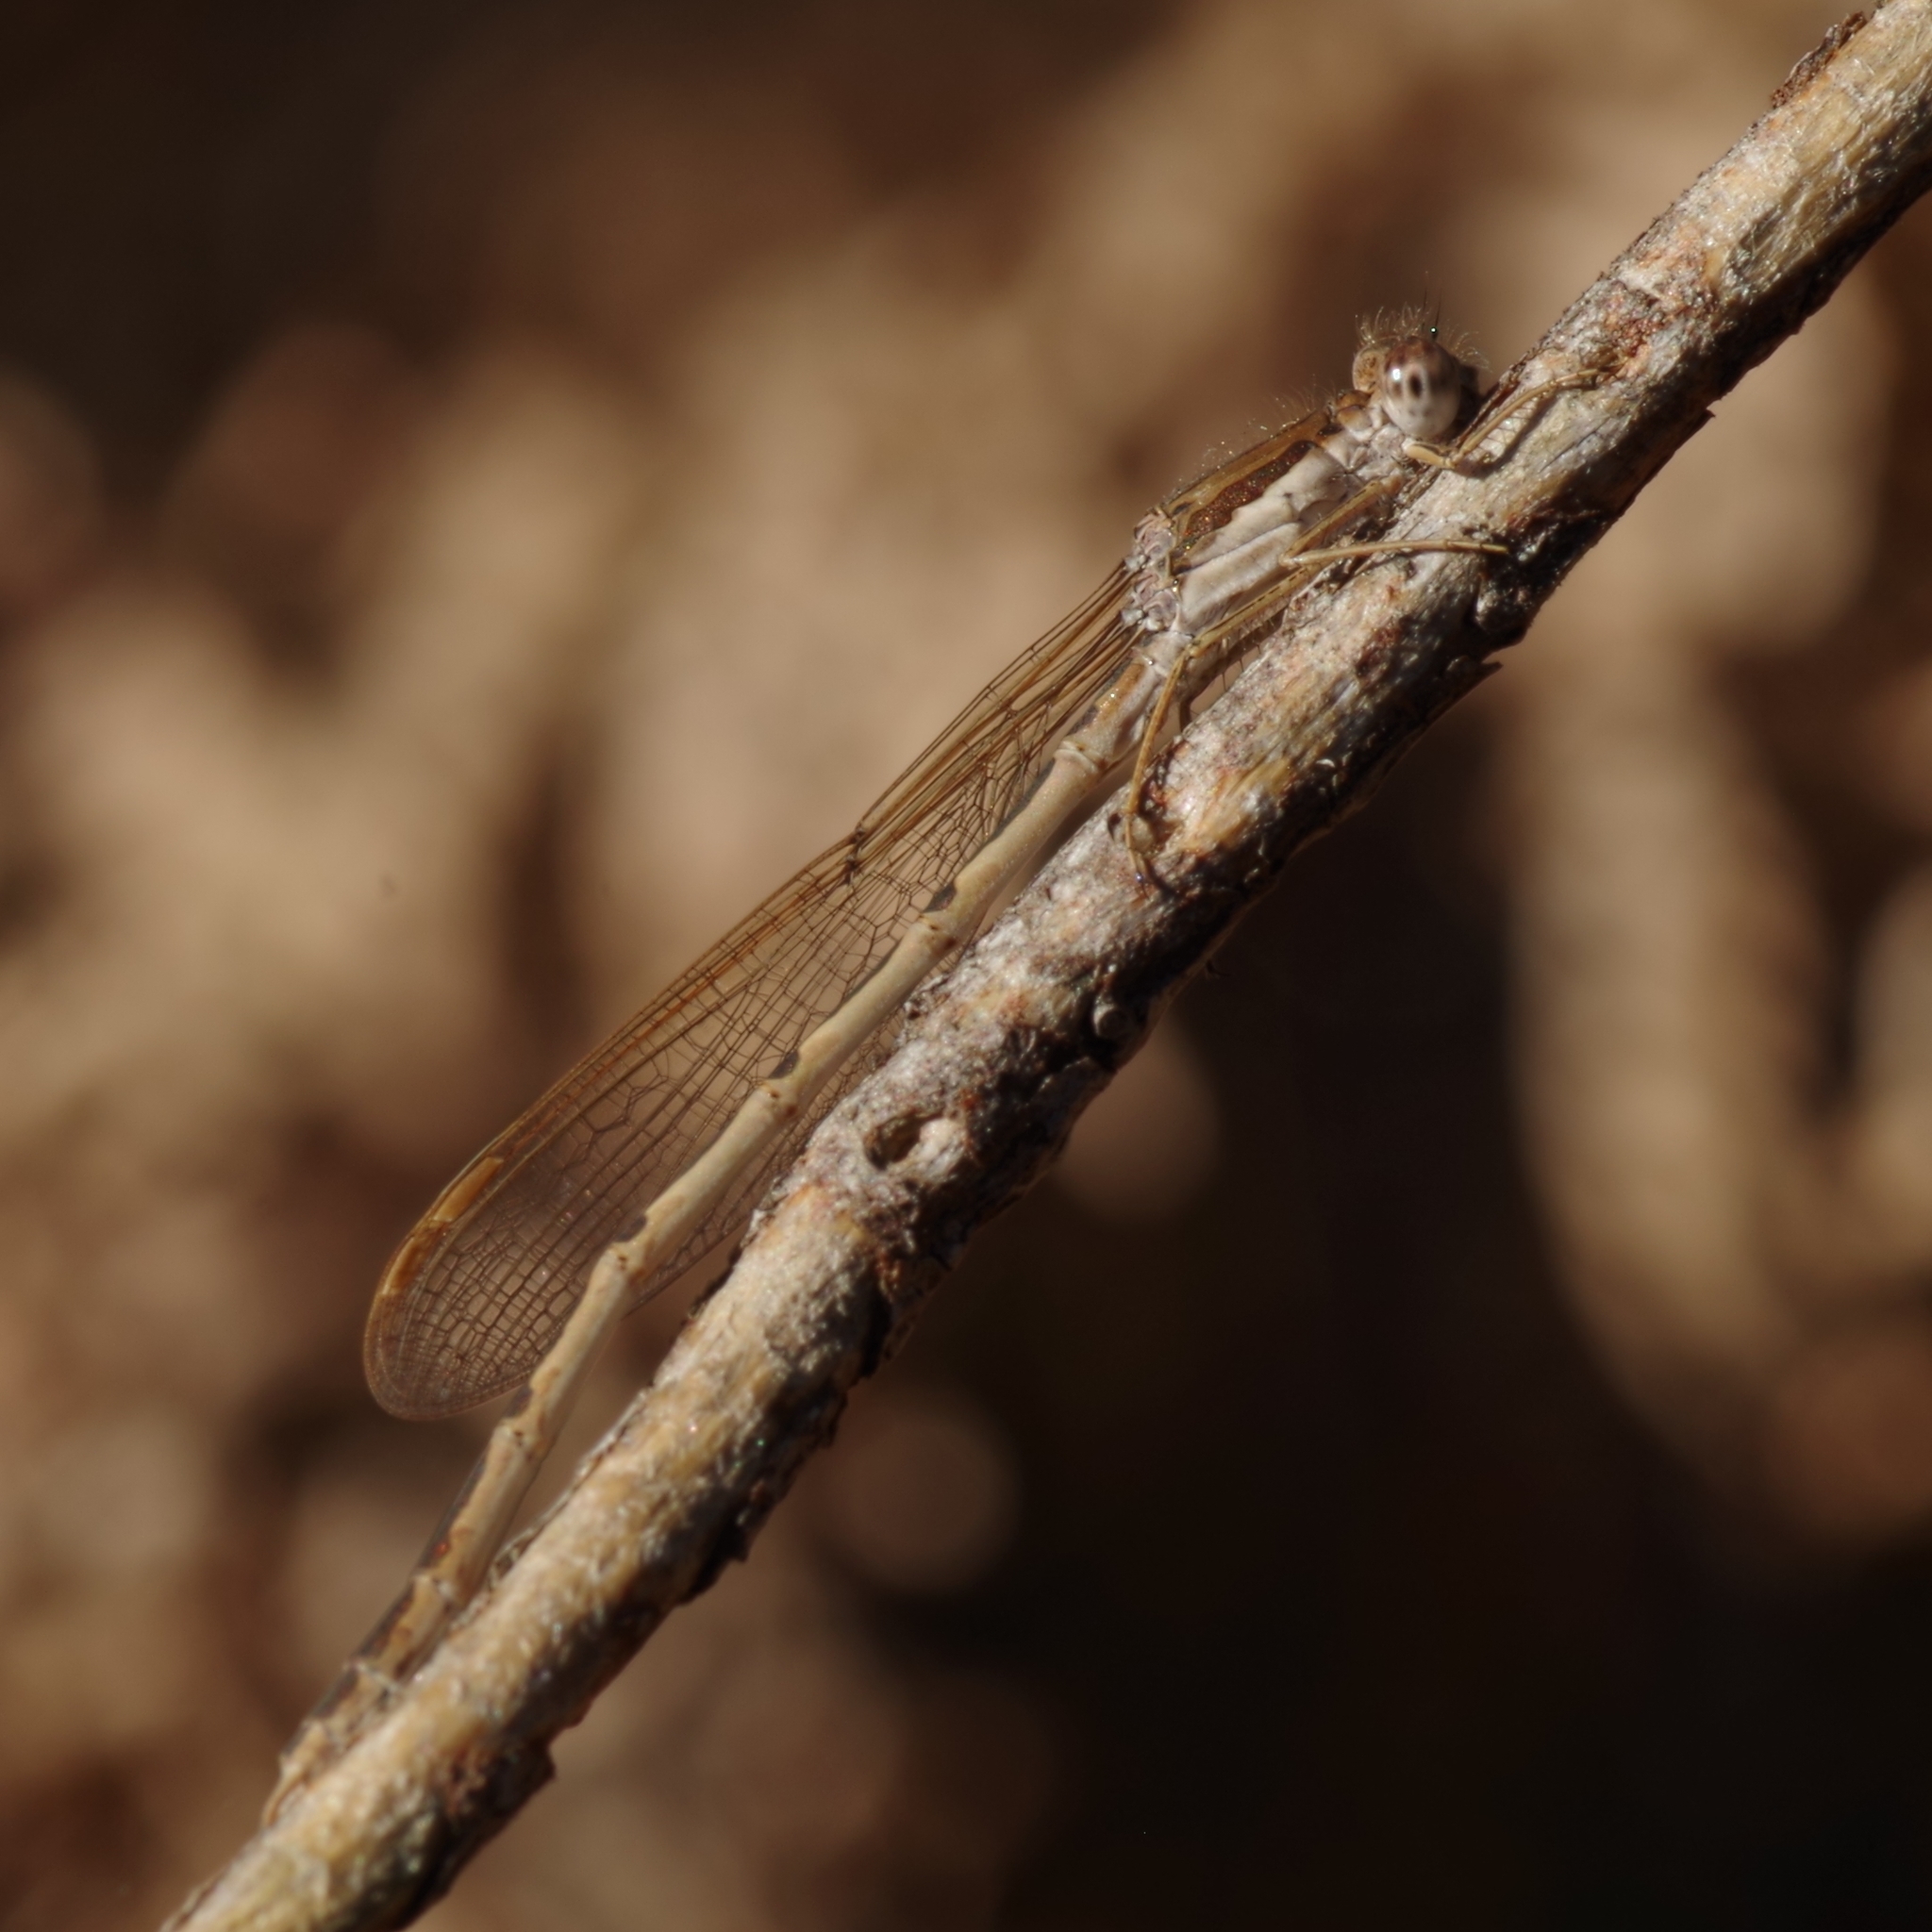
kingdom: Animalia
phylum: Arthropoda
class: Insecta
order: Odonata
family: Lestidae
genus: Sympecma
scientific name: Sympecma fusca
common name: Common winter damsel
